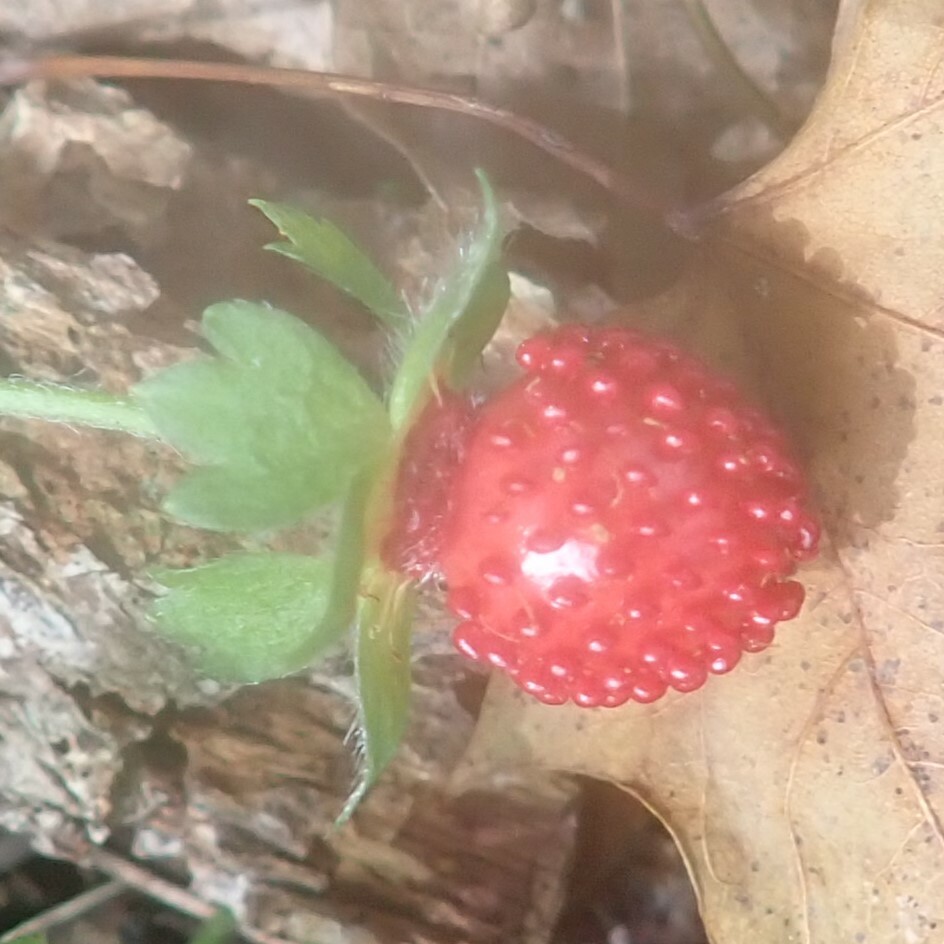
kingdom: Plantae
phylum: Tracheophyta
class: Magnoliopsida
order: Rosales
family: Rosaceae
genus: Potentilla
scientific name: Potentilla indica
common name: Yellow-flowered strawberry
